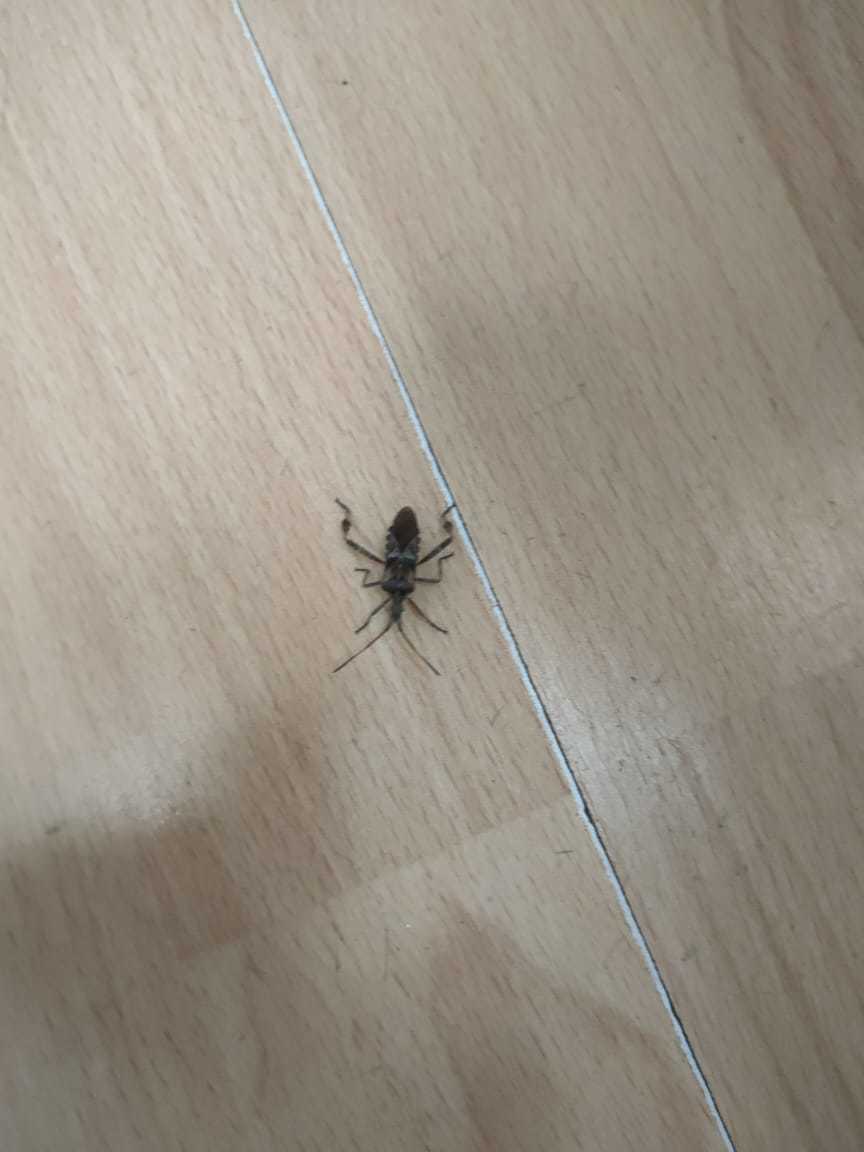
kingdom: Animalia
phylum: Arthropoda
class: Insecta
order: Hemiptera
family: Coreidae
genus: Leptoglossus
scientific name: Leptoglossus occidentalis
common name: Western conifer-seed bug
